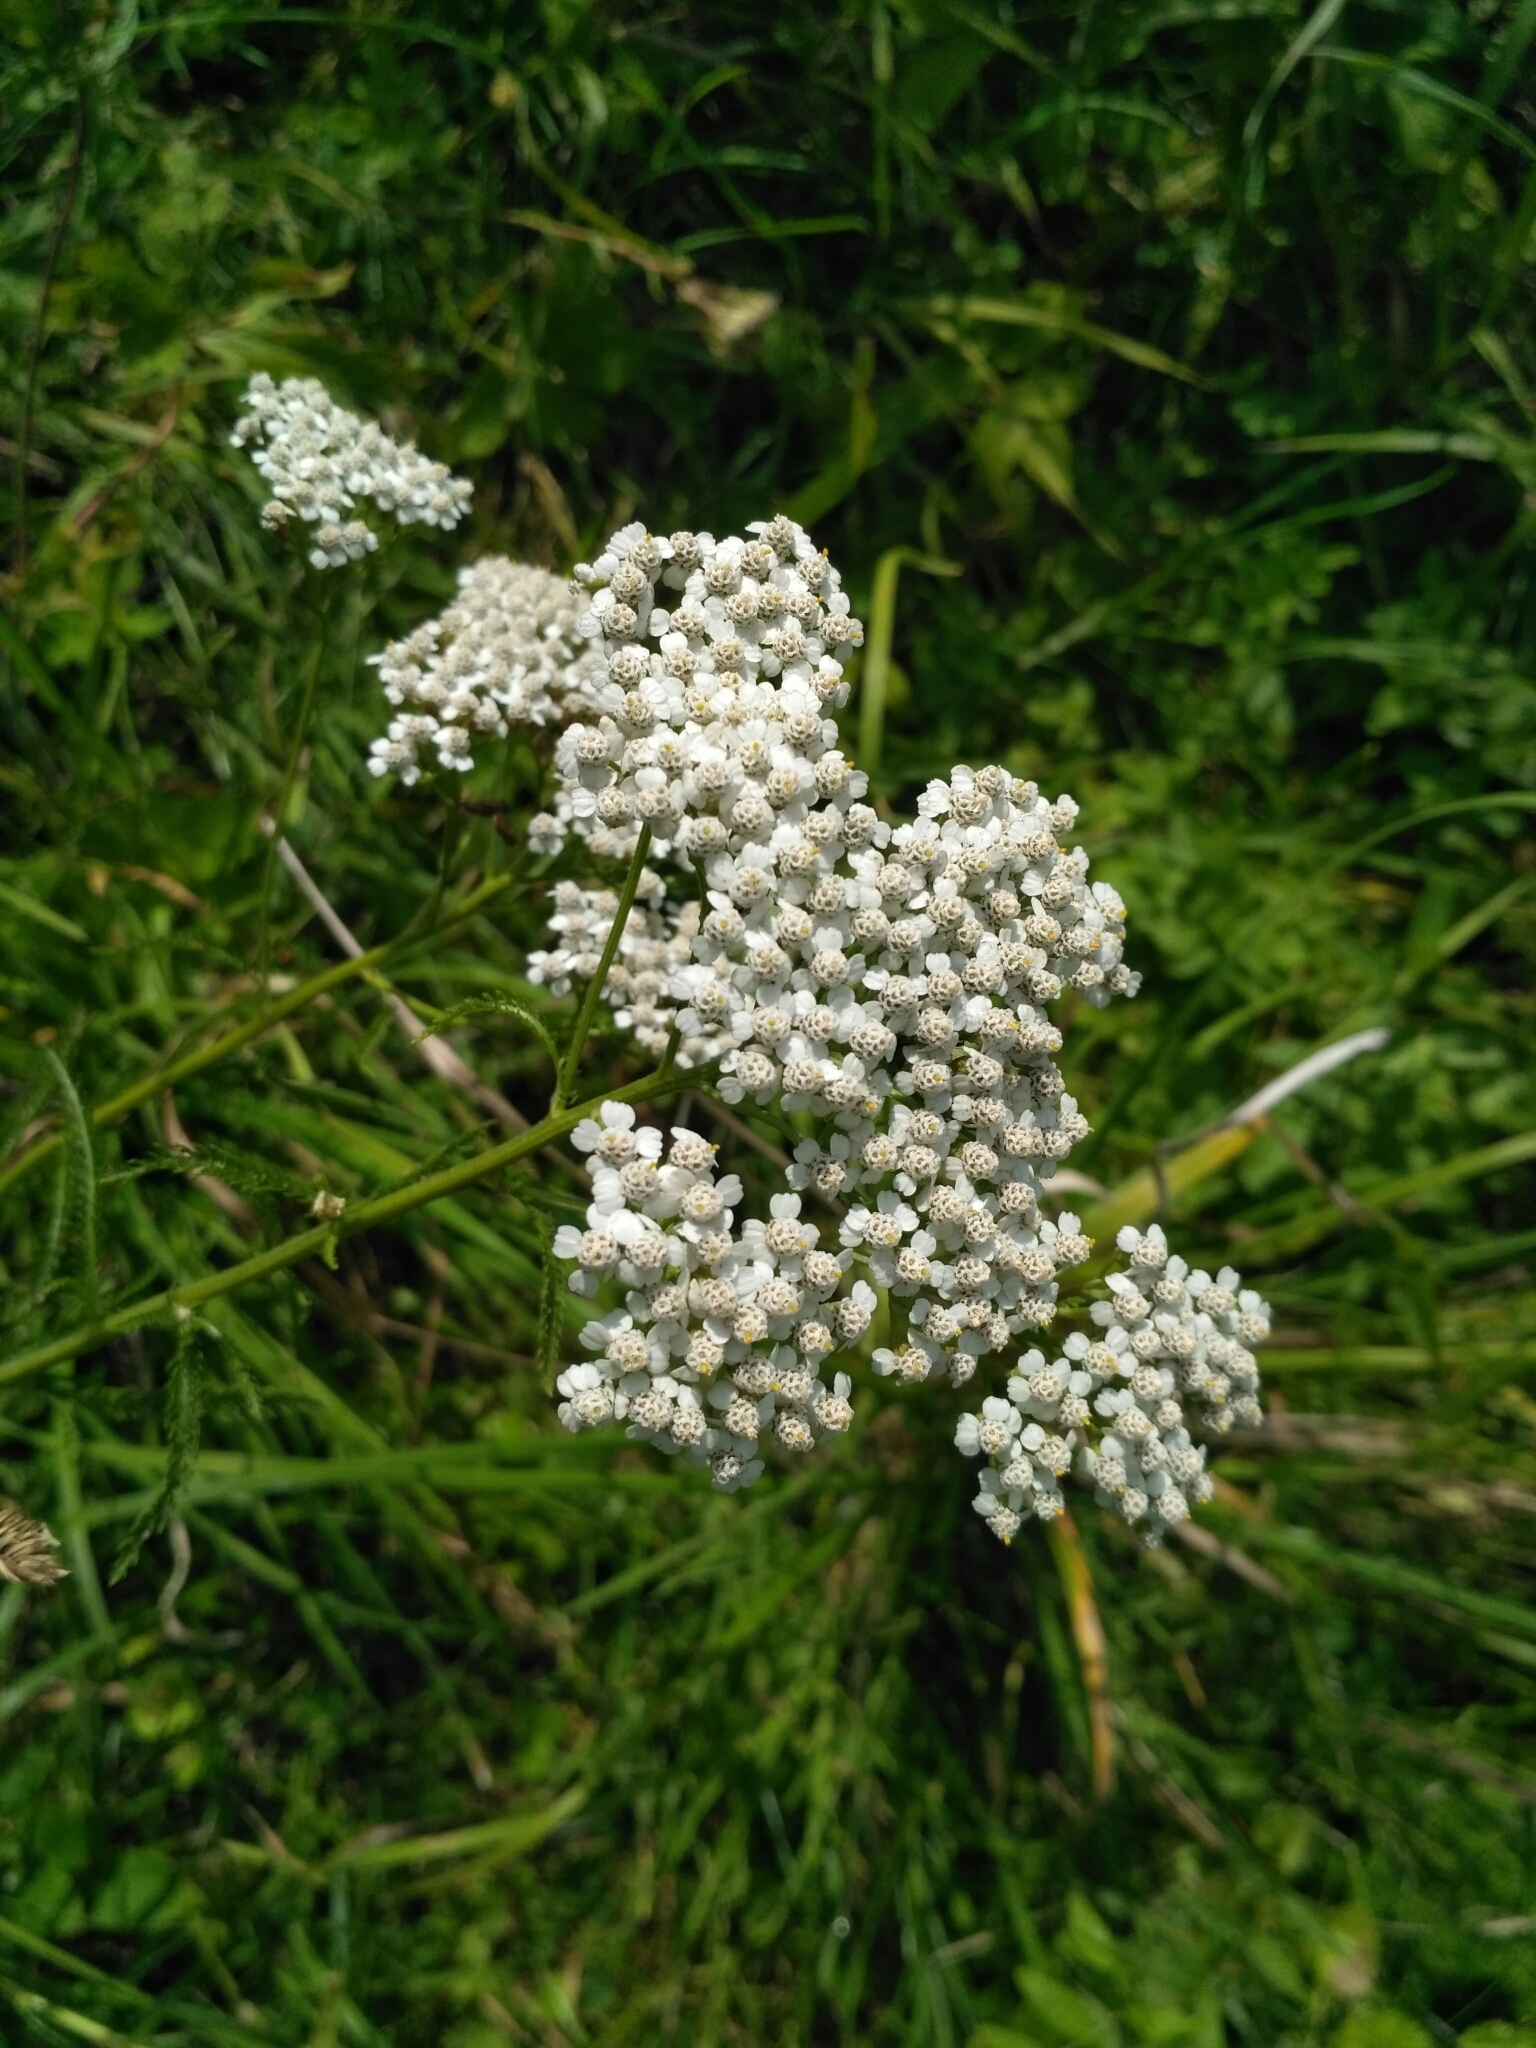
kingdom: Plantae
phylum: Tracheophyta
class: Magnoliopsida
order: Asterales
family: Asteraceae
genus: Achillea
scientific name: Achillea millefolium
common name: Yarrow
